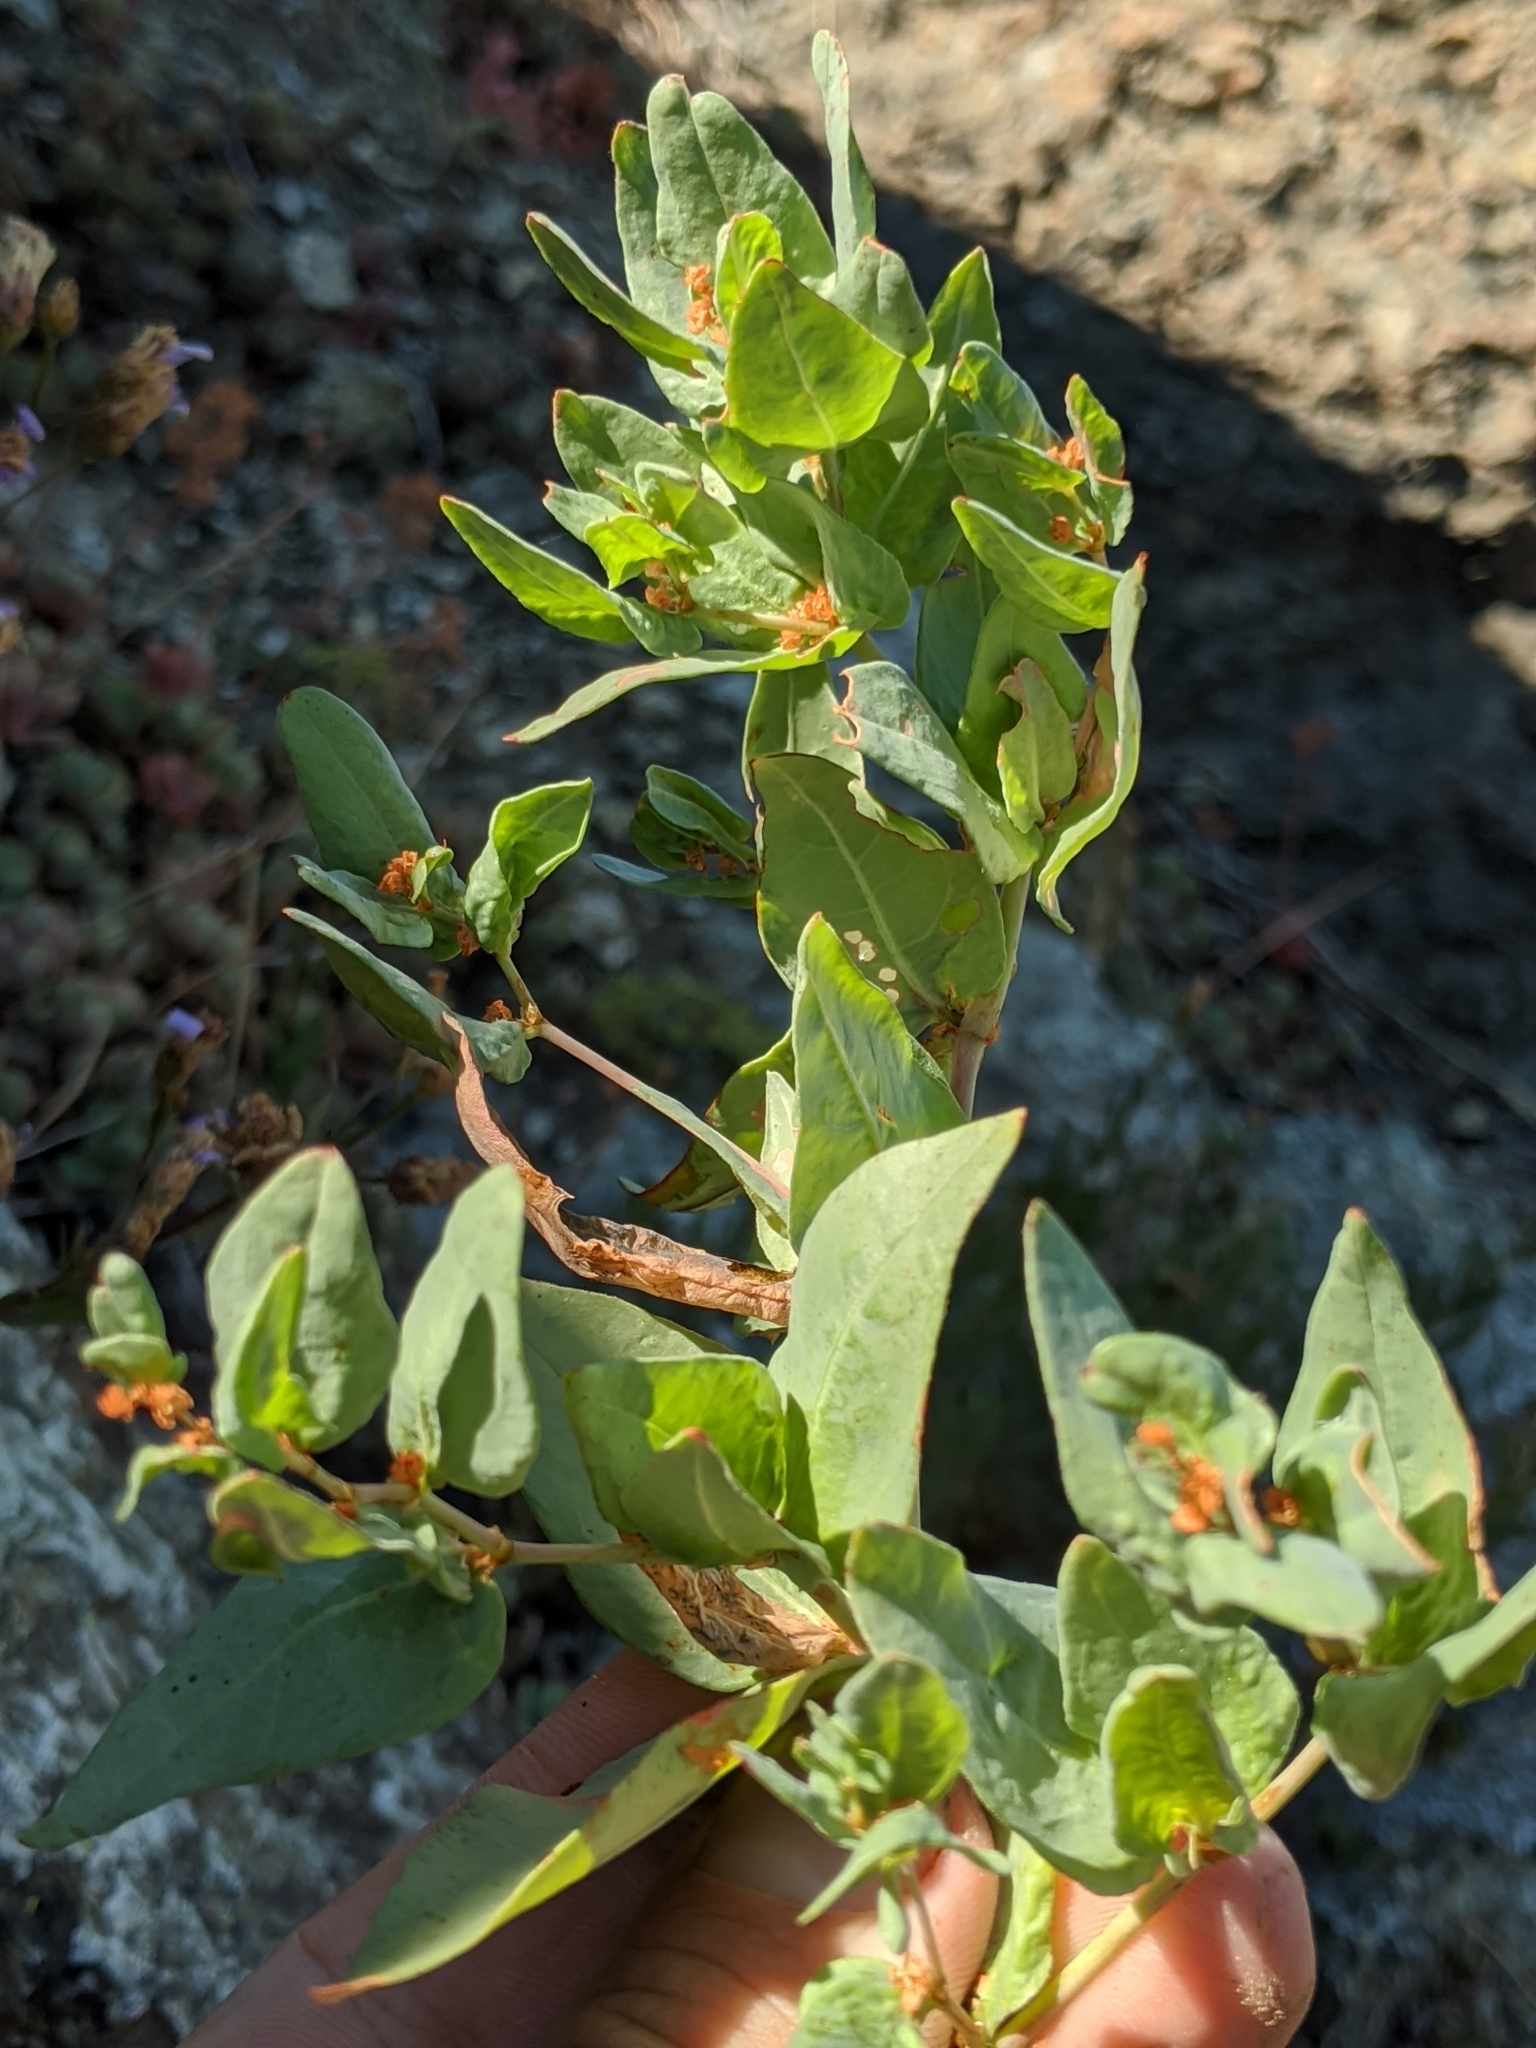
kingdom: Plantae
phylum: Tracheophyta
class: Magnoliopsida
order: Caryophyllales
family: Polygonaceae
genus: Koenigia
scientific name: Koenigia davisiae
